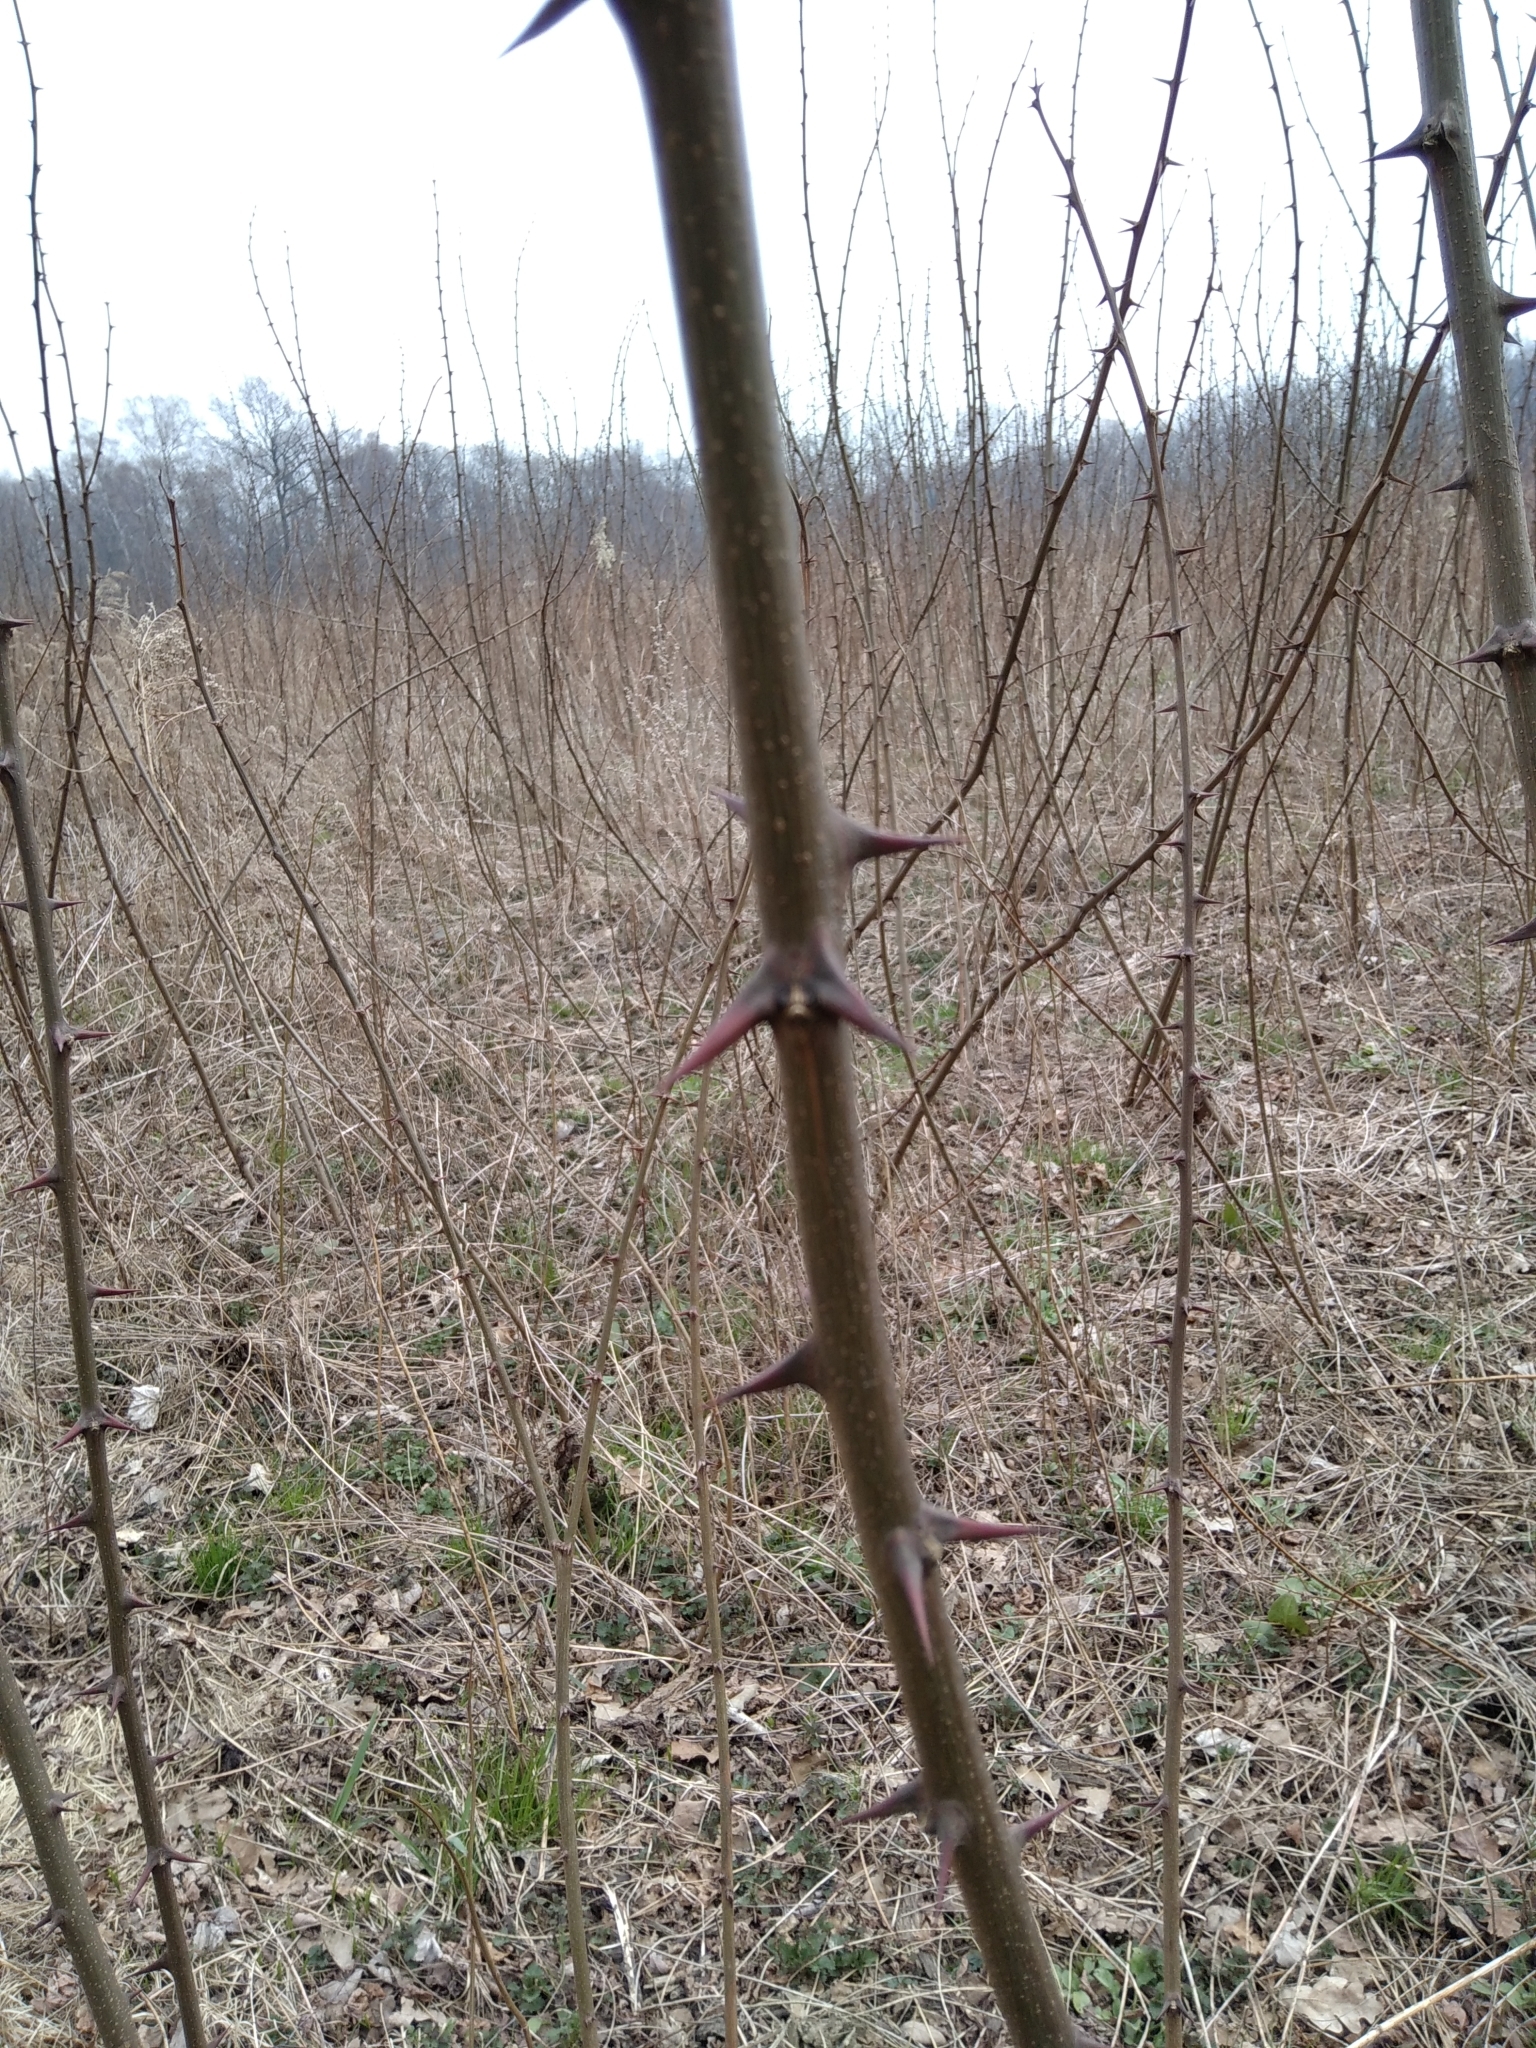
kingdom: Plantae
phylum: Tracheophyta
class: Magnoliopsida
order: Fabales
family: Fabaceae
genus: Robinia
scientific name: Robinia pseudoacacia
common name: Black locust
